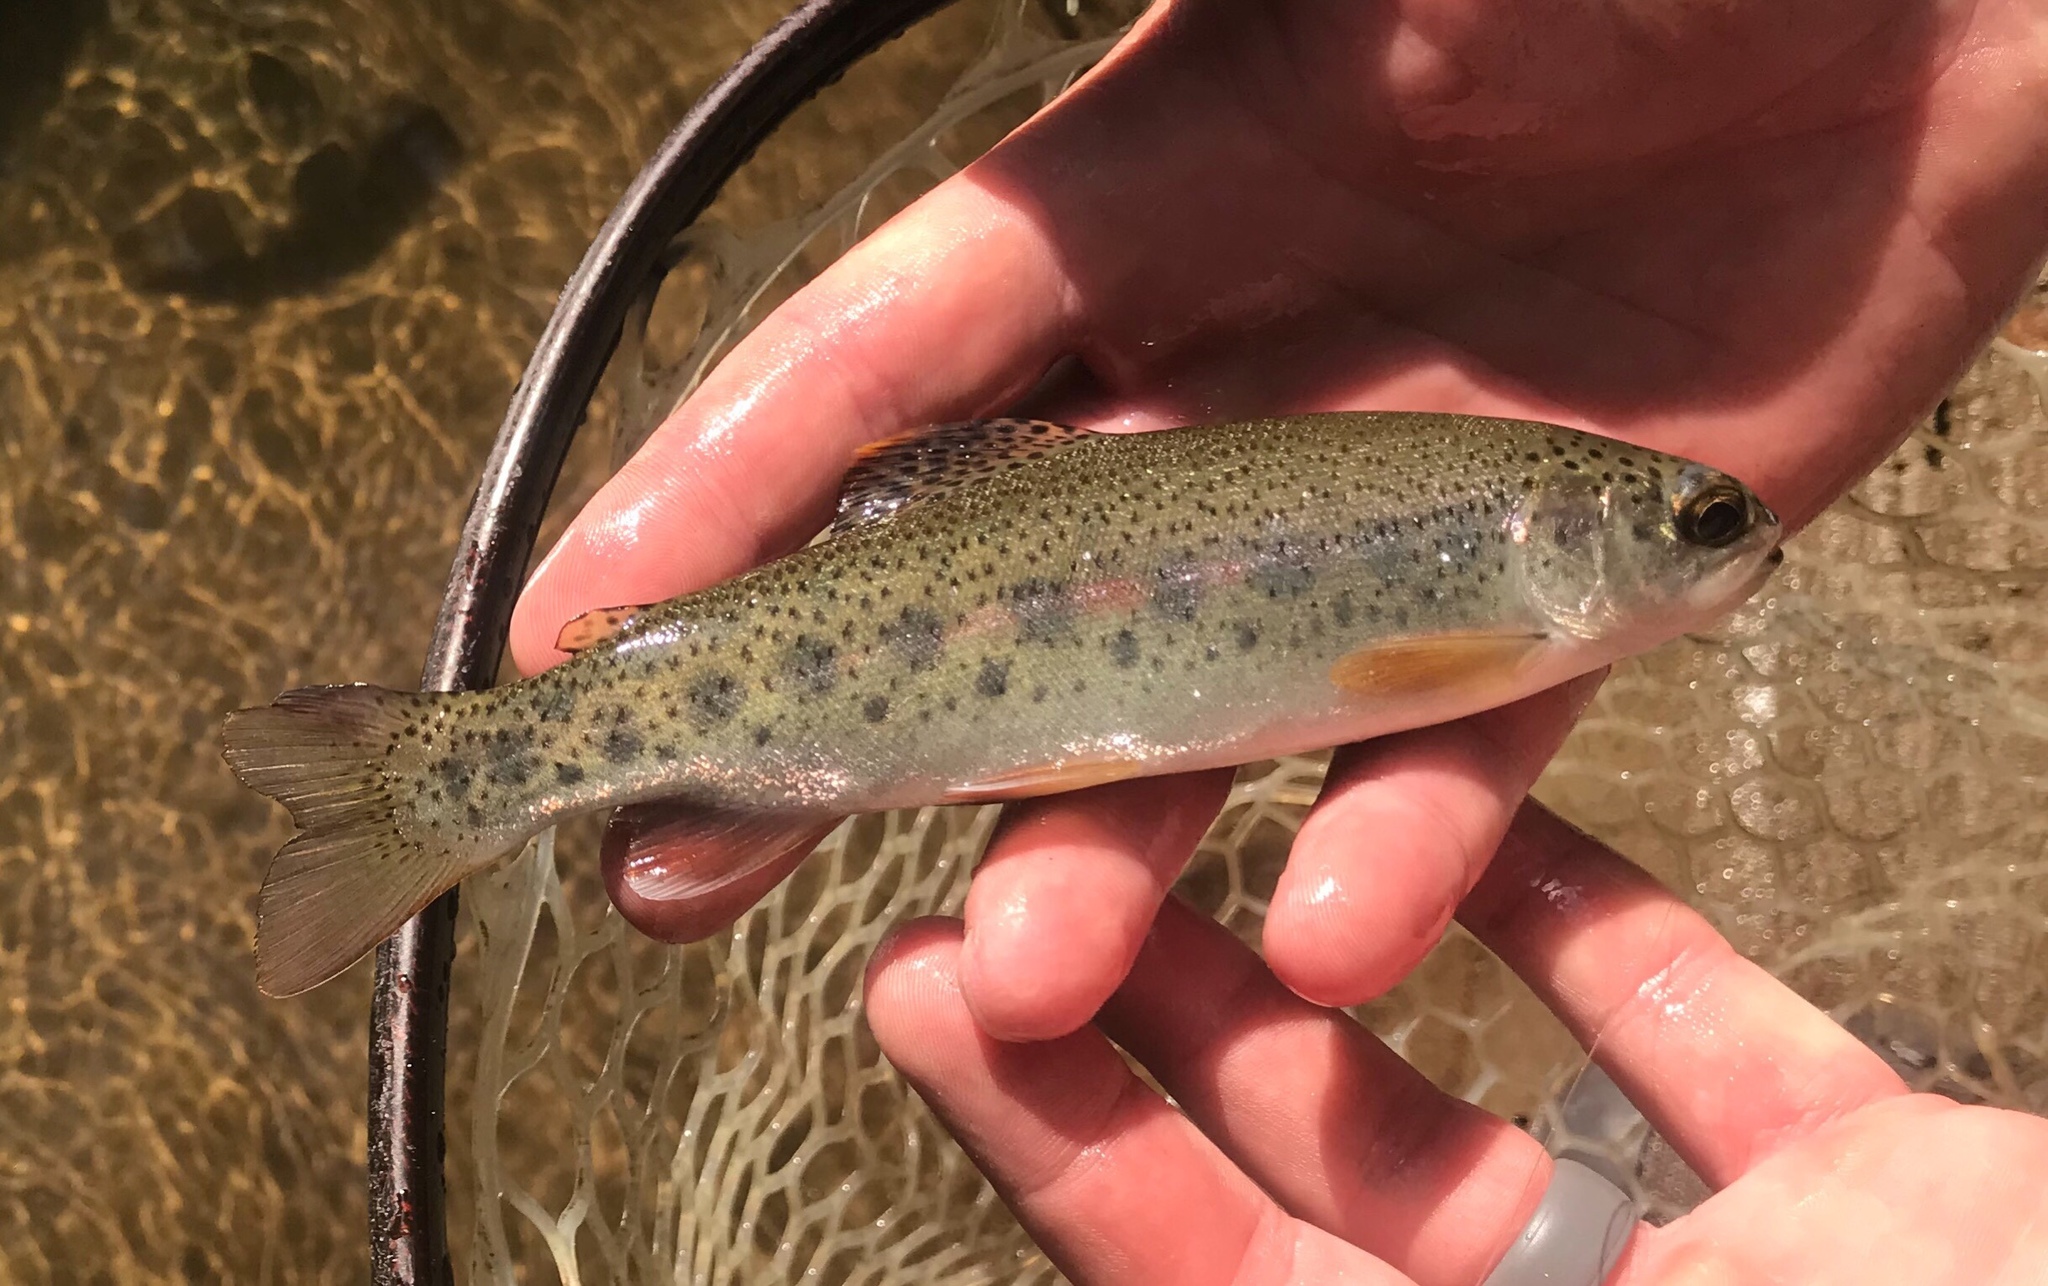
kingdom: Animalia
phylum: Chordata
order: Salmoniformes
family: Salmonidae
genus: Oncorhynchus
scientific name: Oncorhynchus mykiss
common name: Rainbow trout
